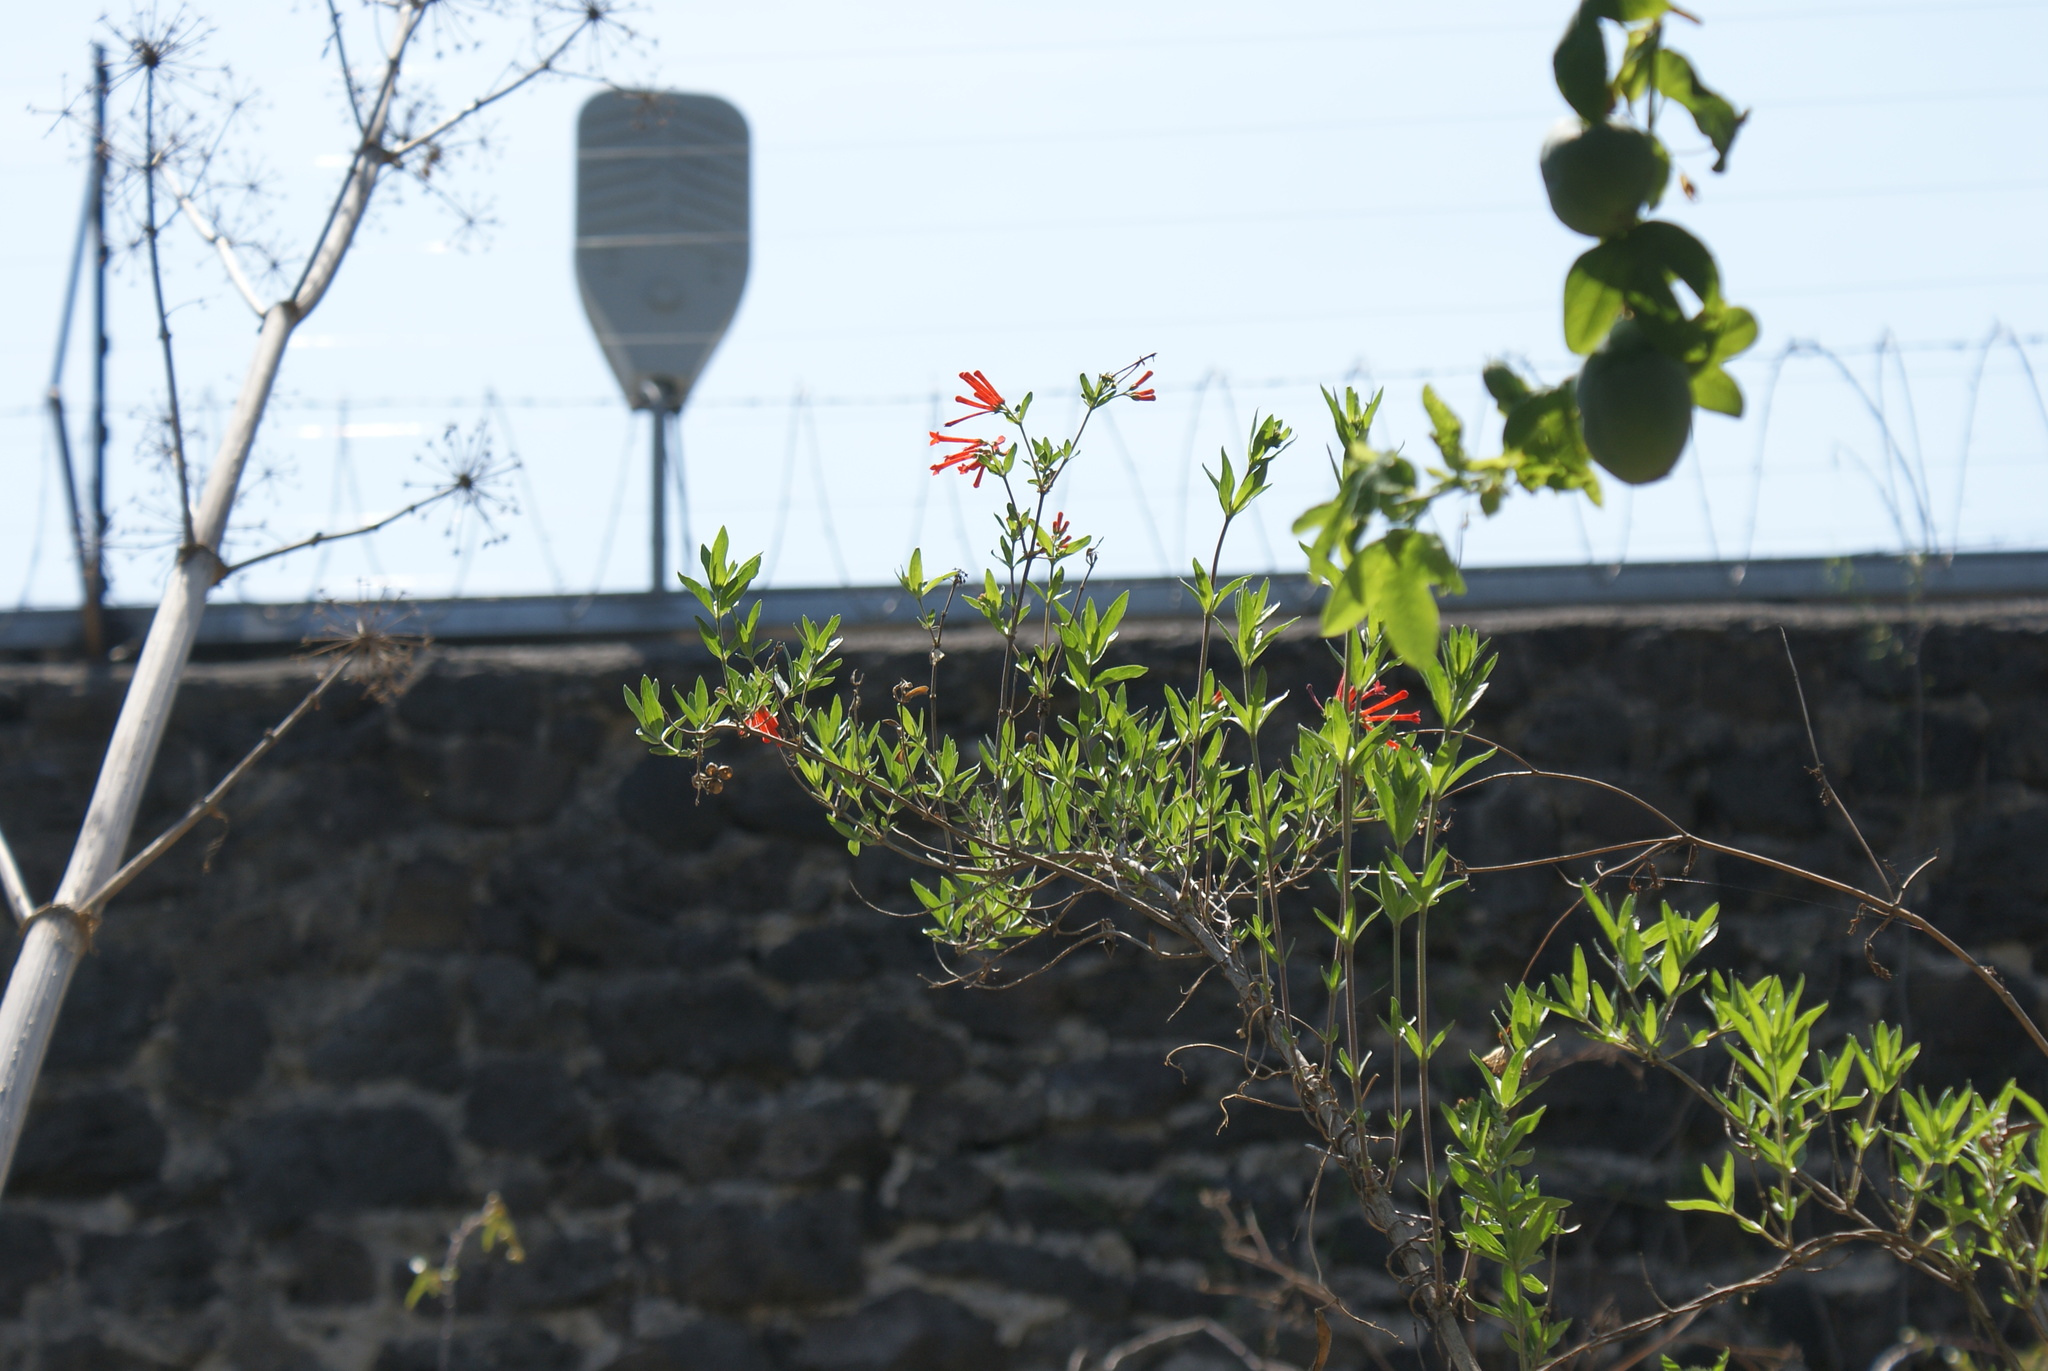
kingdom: Plantae
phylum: Tracheophyta
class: Magnoliopsida
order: Gentianales
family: Rubiaceae
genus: Bouvardia
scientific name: Bouvardia ternifolia
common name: Scarlet bouvardia
